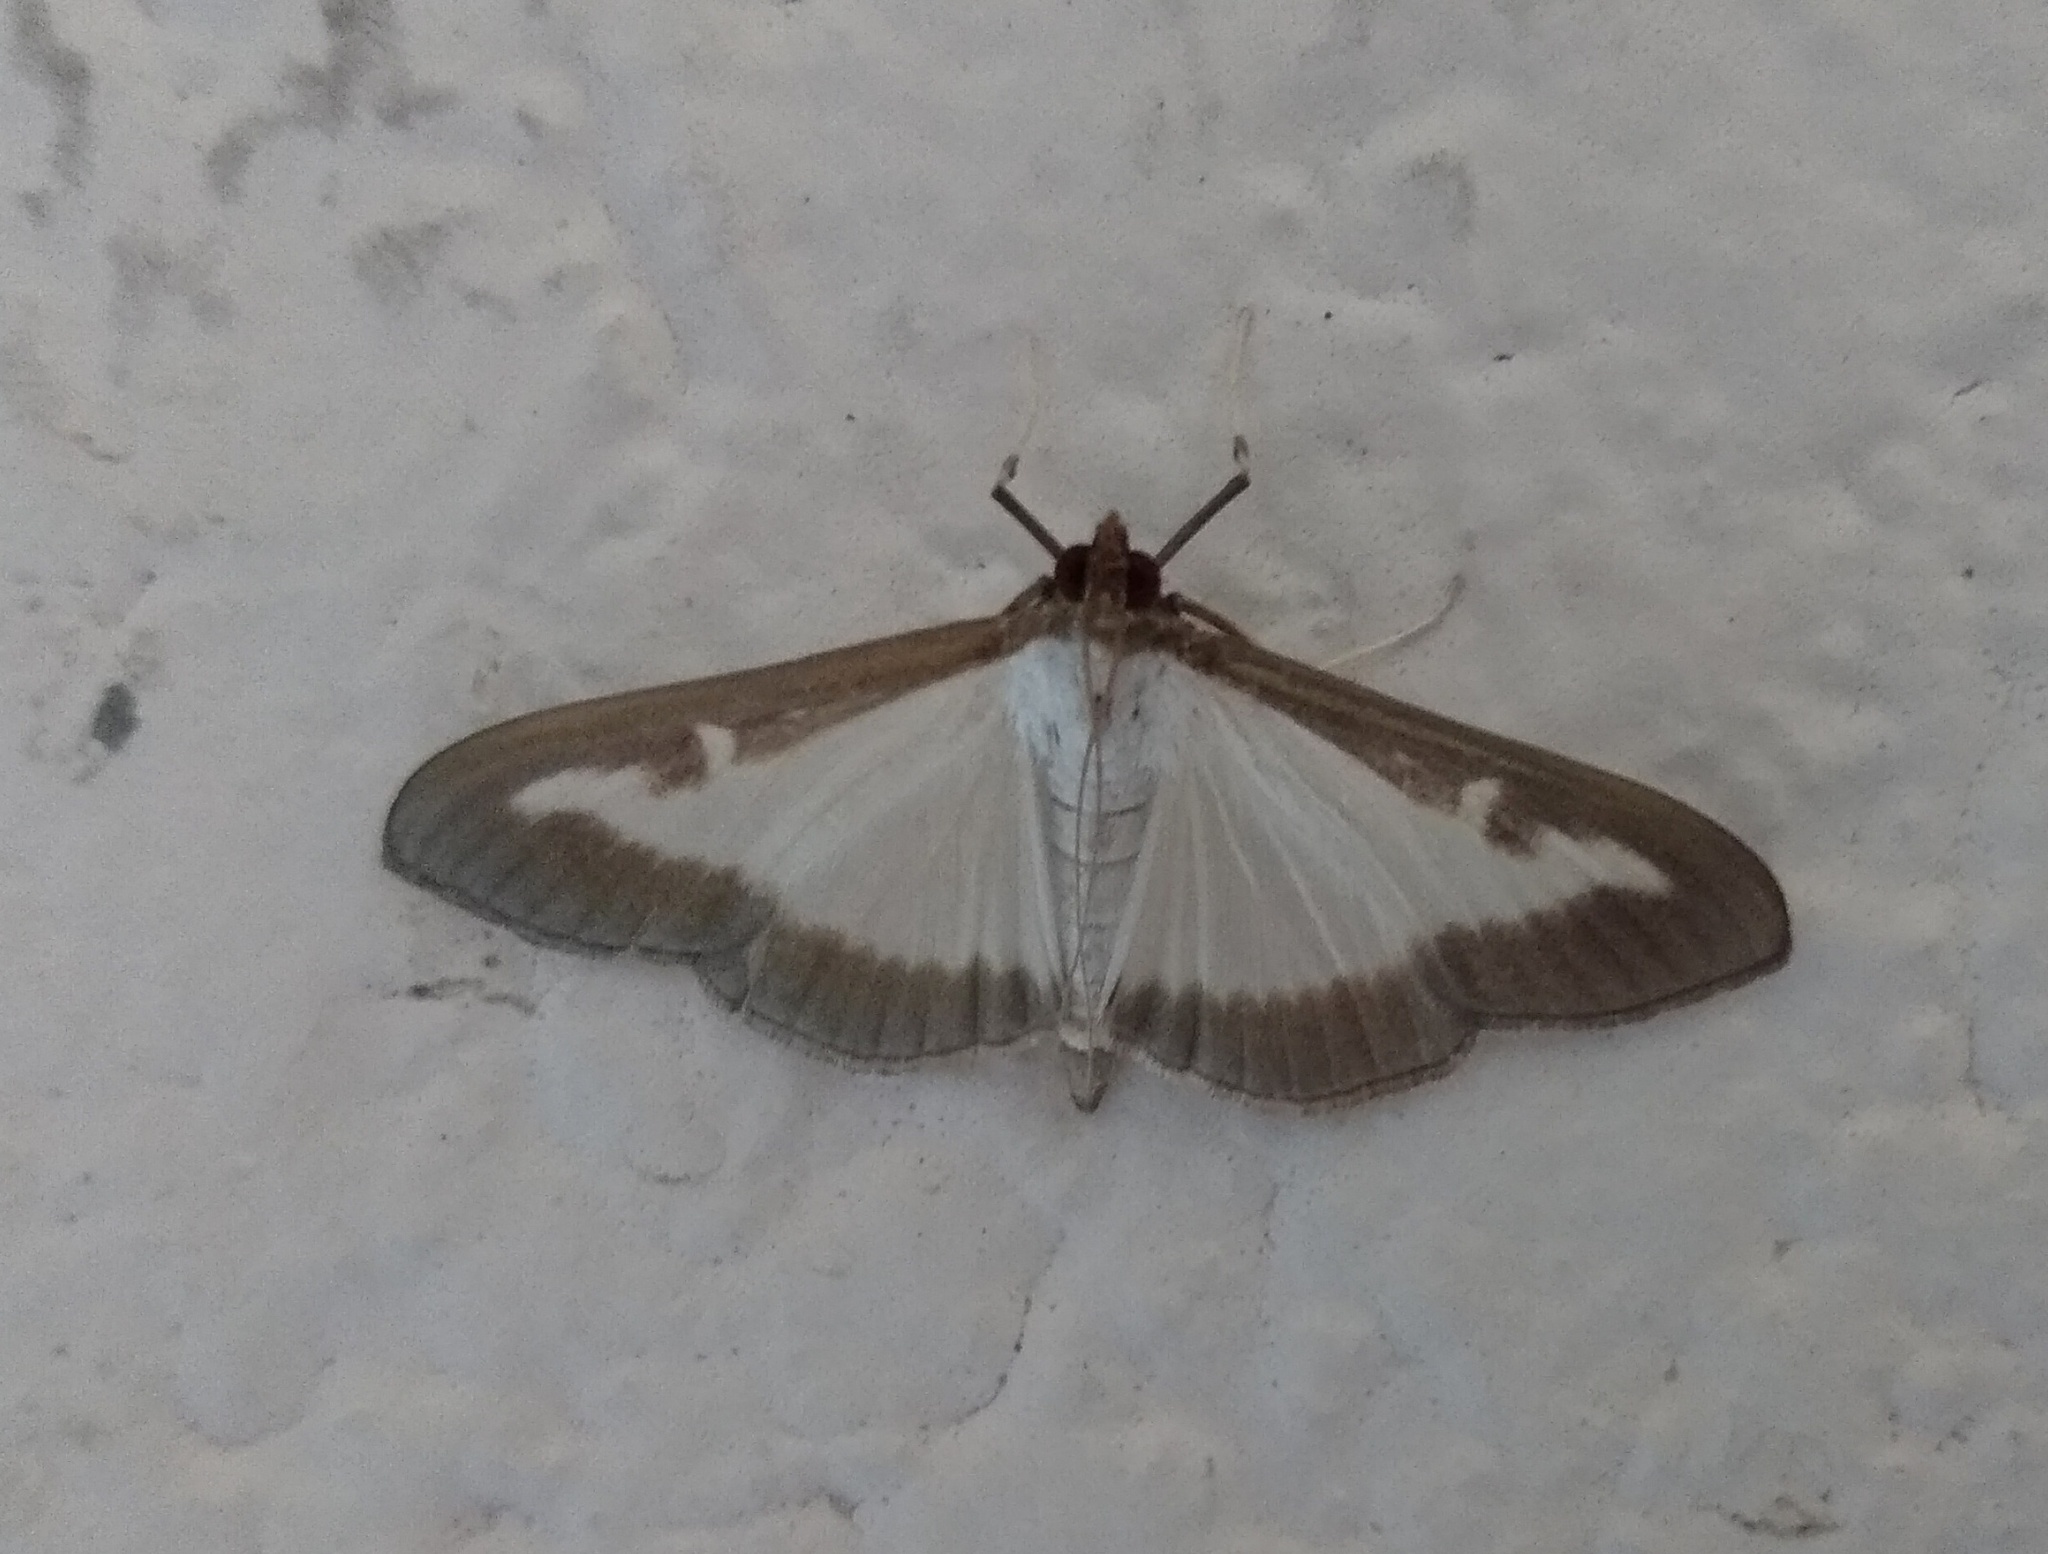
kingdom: Animalia
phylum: Arthropoda
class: Insecta
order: Lepidoptera
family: Crambidae
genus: Cydalima
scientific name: Cydalima perspectalis
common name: Box tree moth
